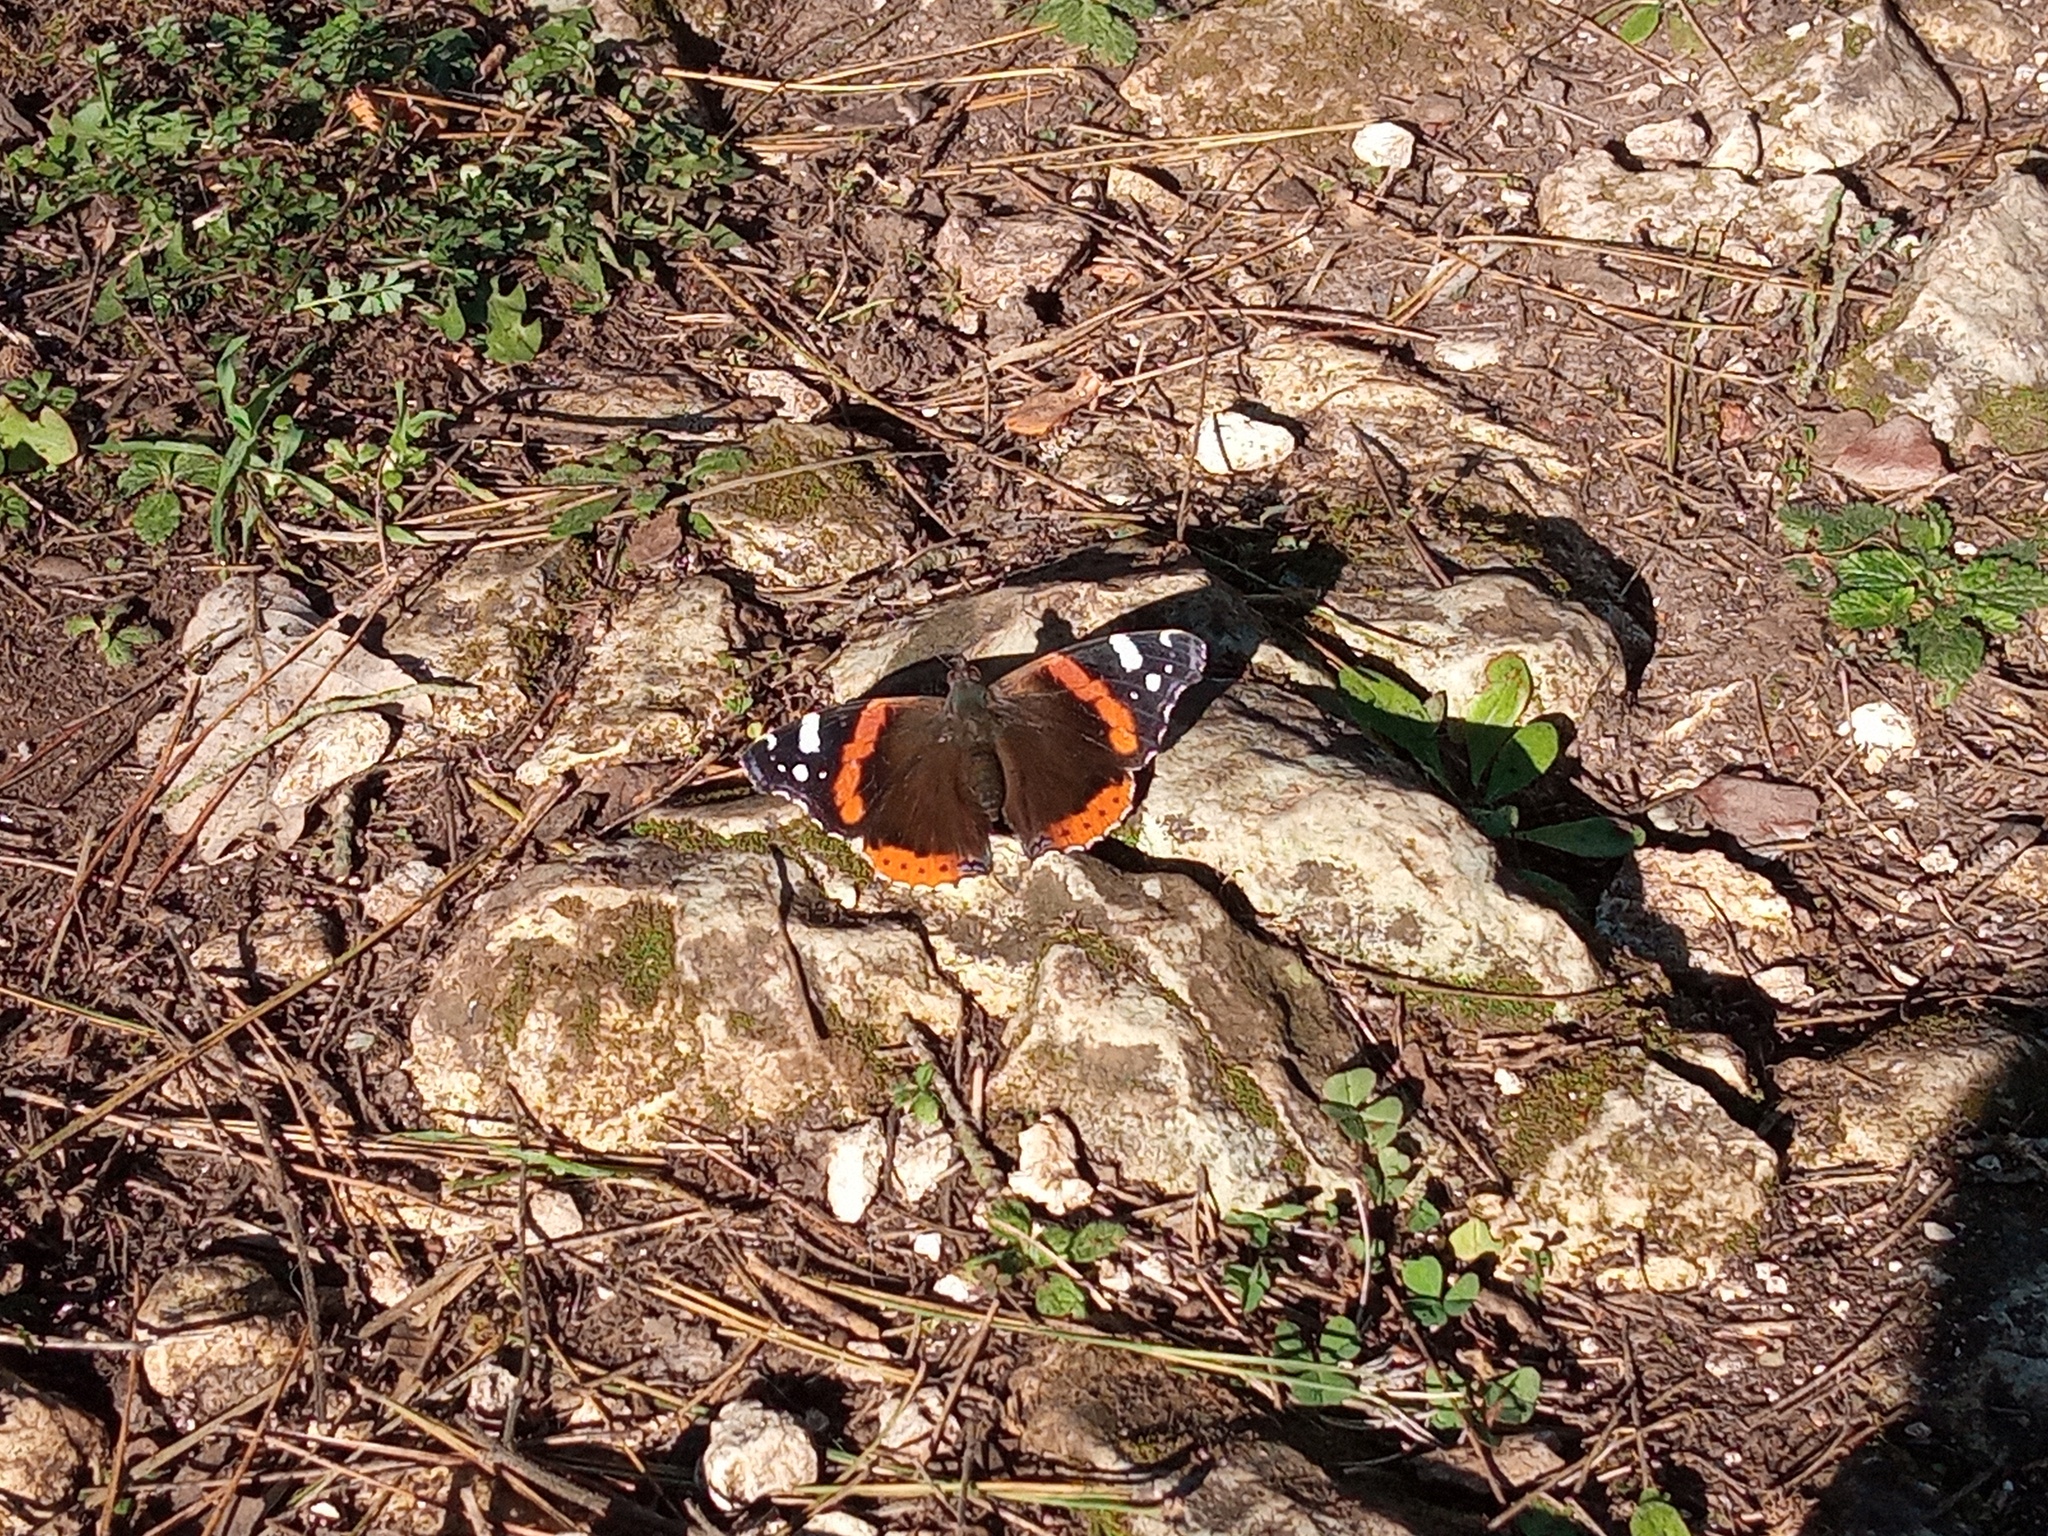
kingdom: Animalia
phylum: Arthropoda
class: Insecta
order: Lepidoptera
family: Nymphalidae
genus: Vanessa
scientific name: Vanessa atalanta
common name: Red admiral
